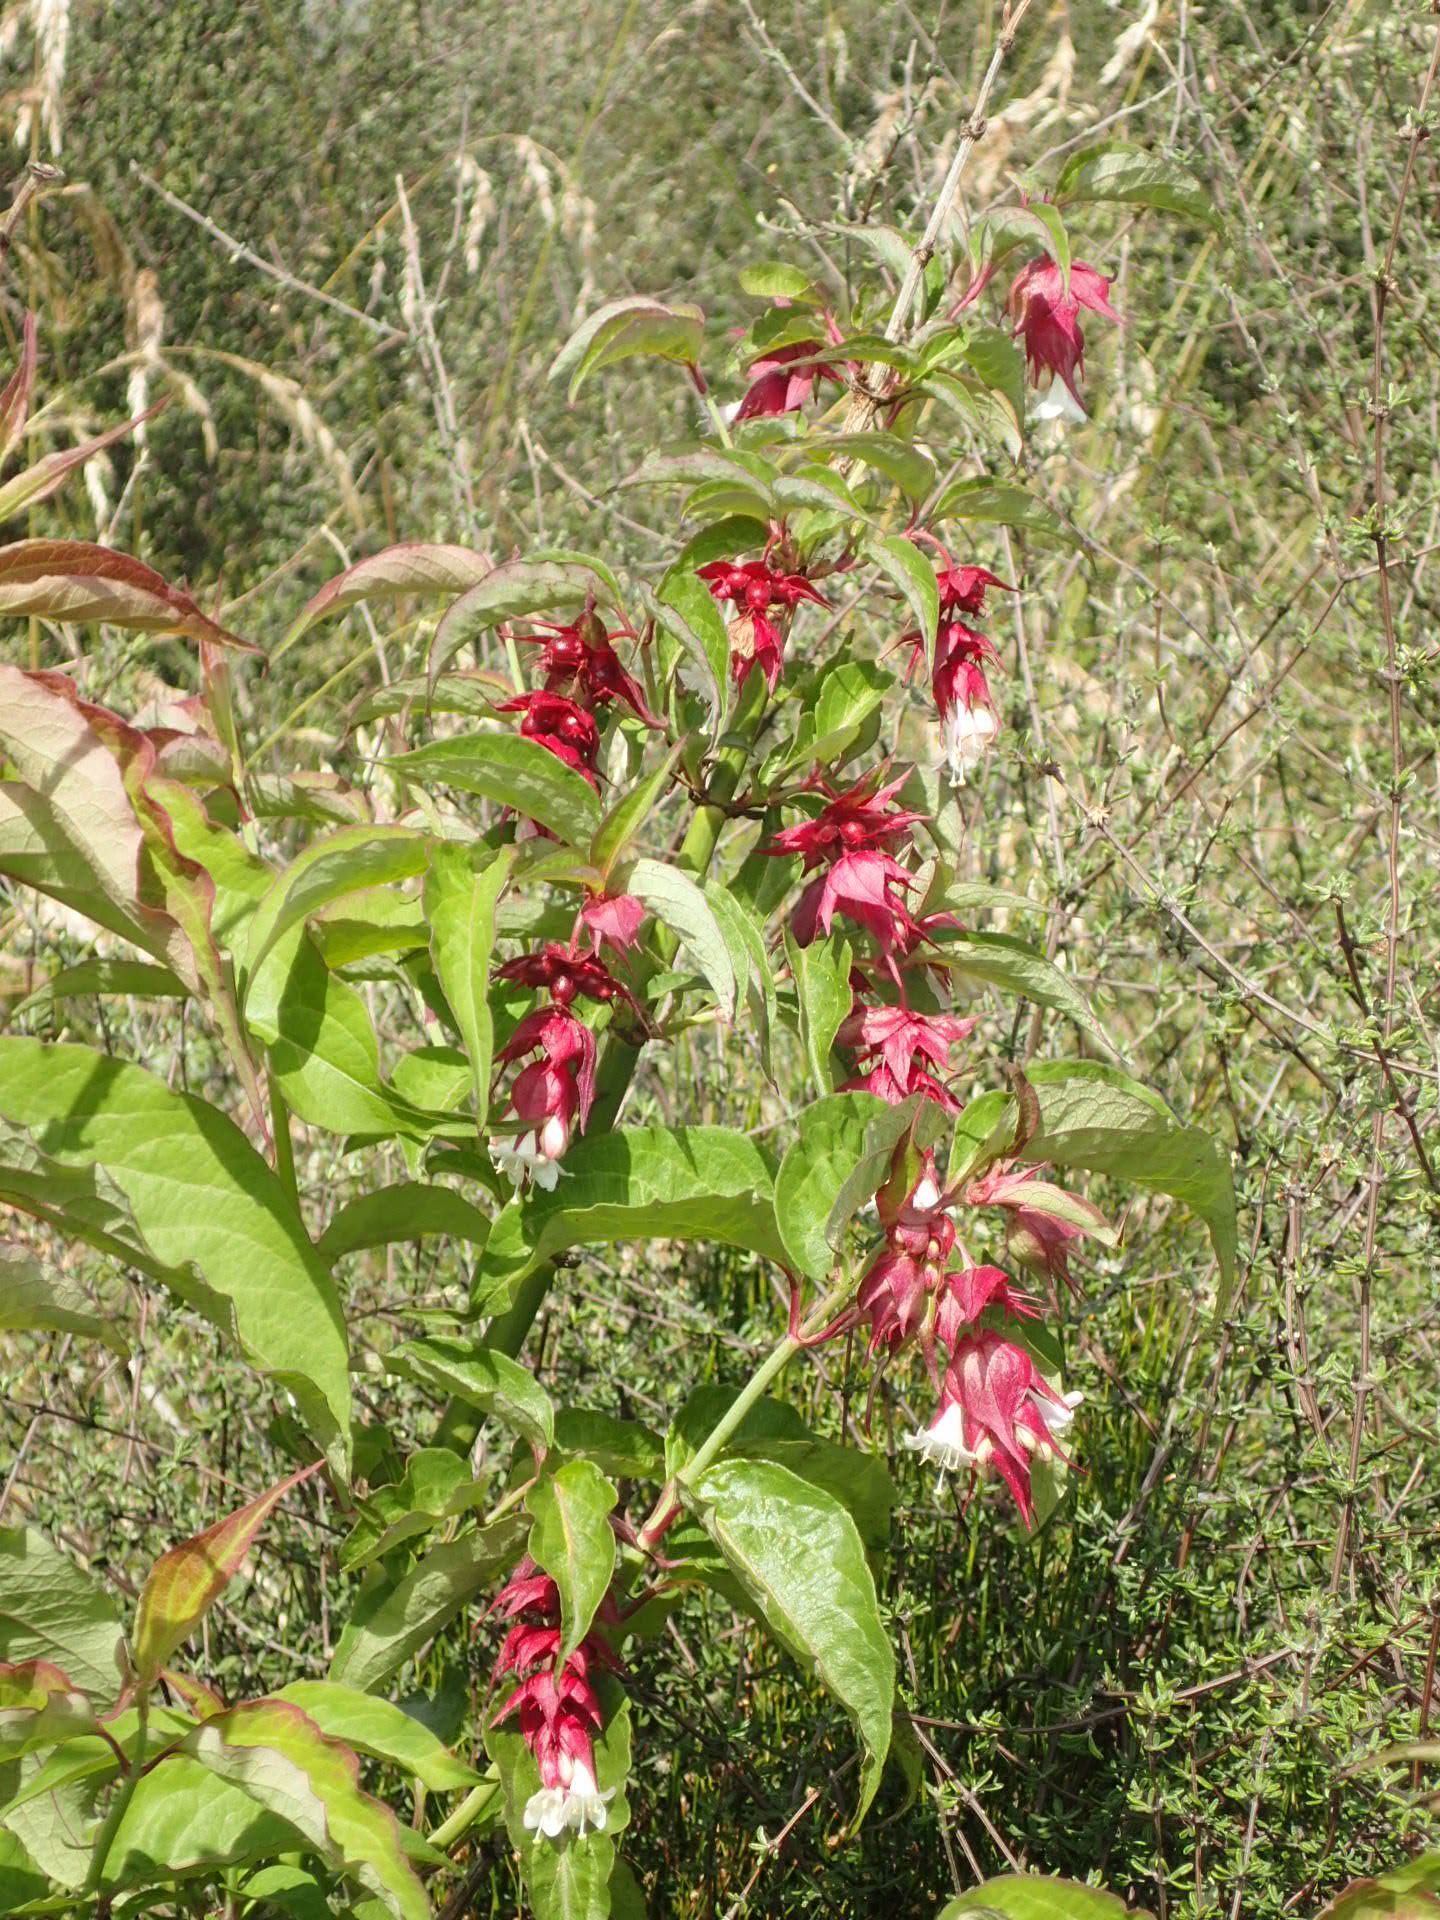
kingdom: Plantae
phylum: Tracheophyta
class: Magnoliopsida
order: Dipsacales
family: Caprifoliaceae
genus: Leycesteria
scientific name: Leycesteria formosa
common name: Himalayan honeysuckle
